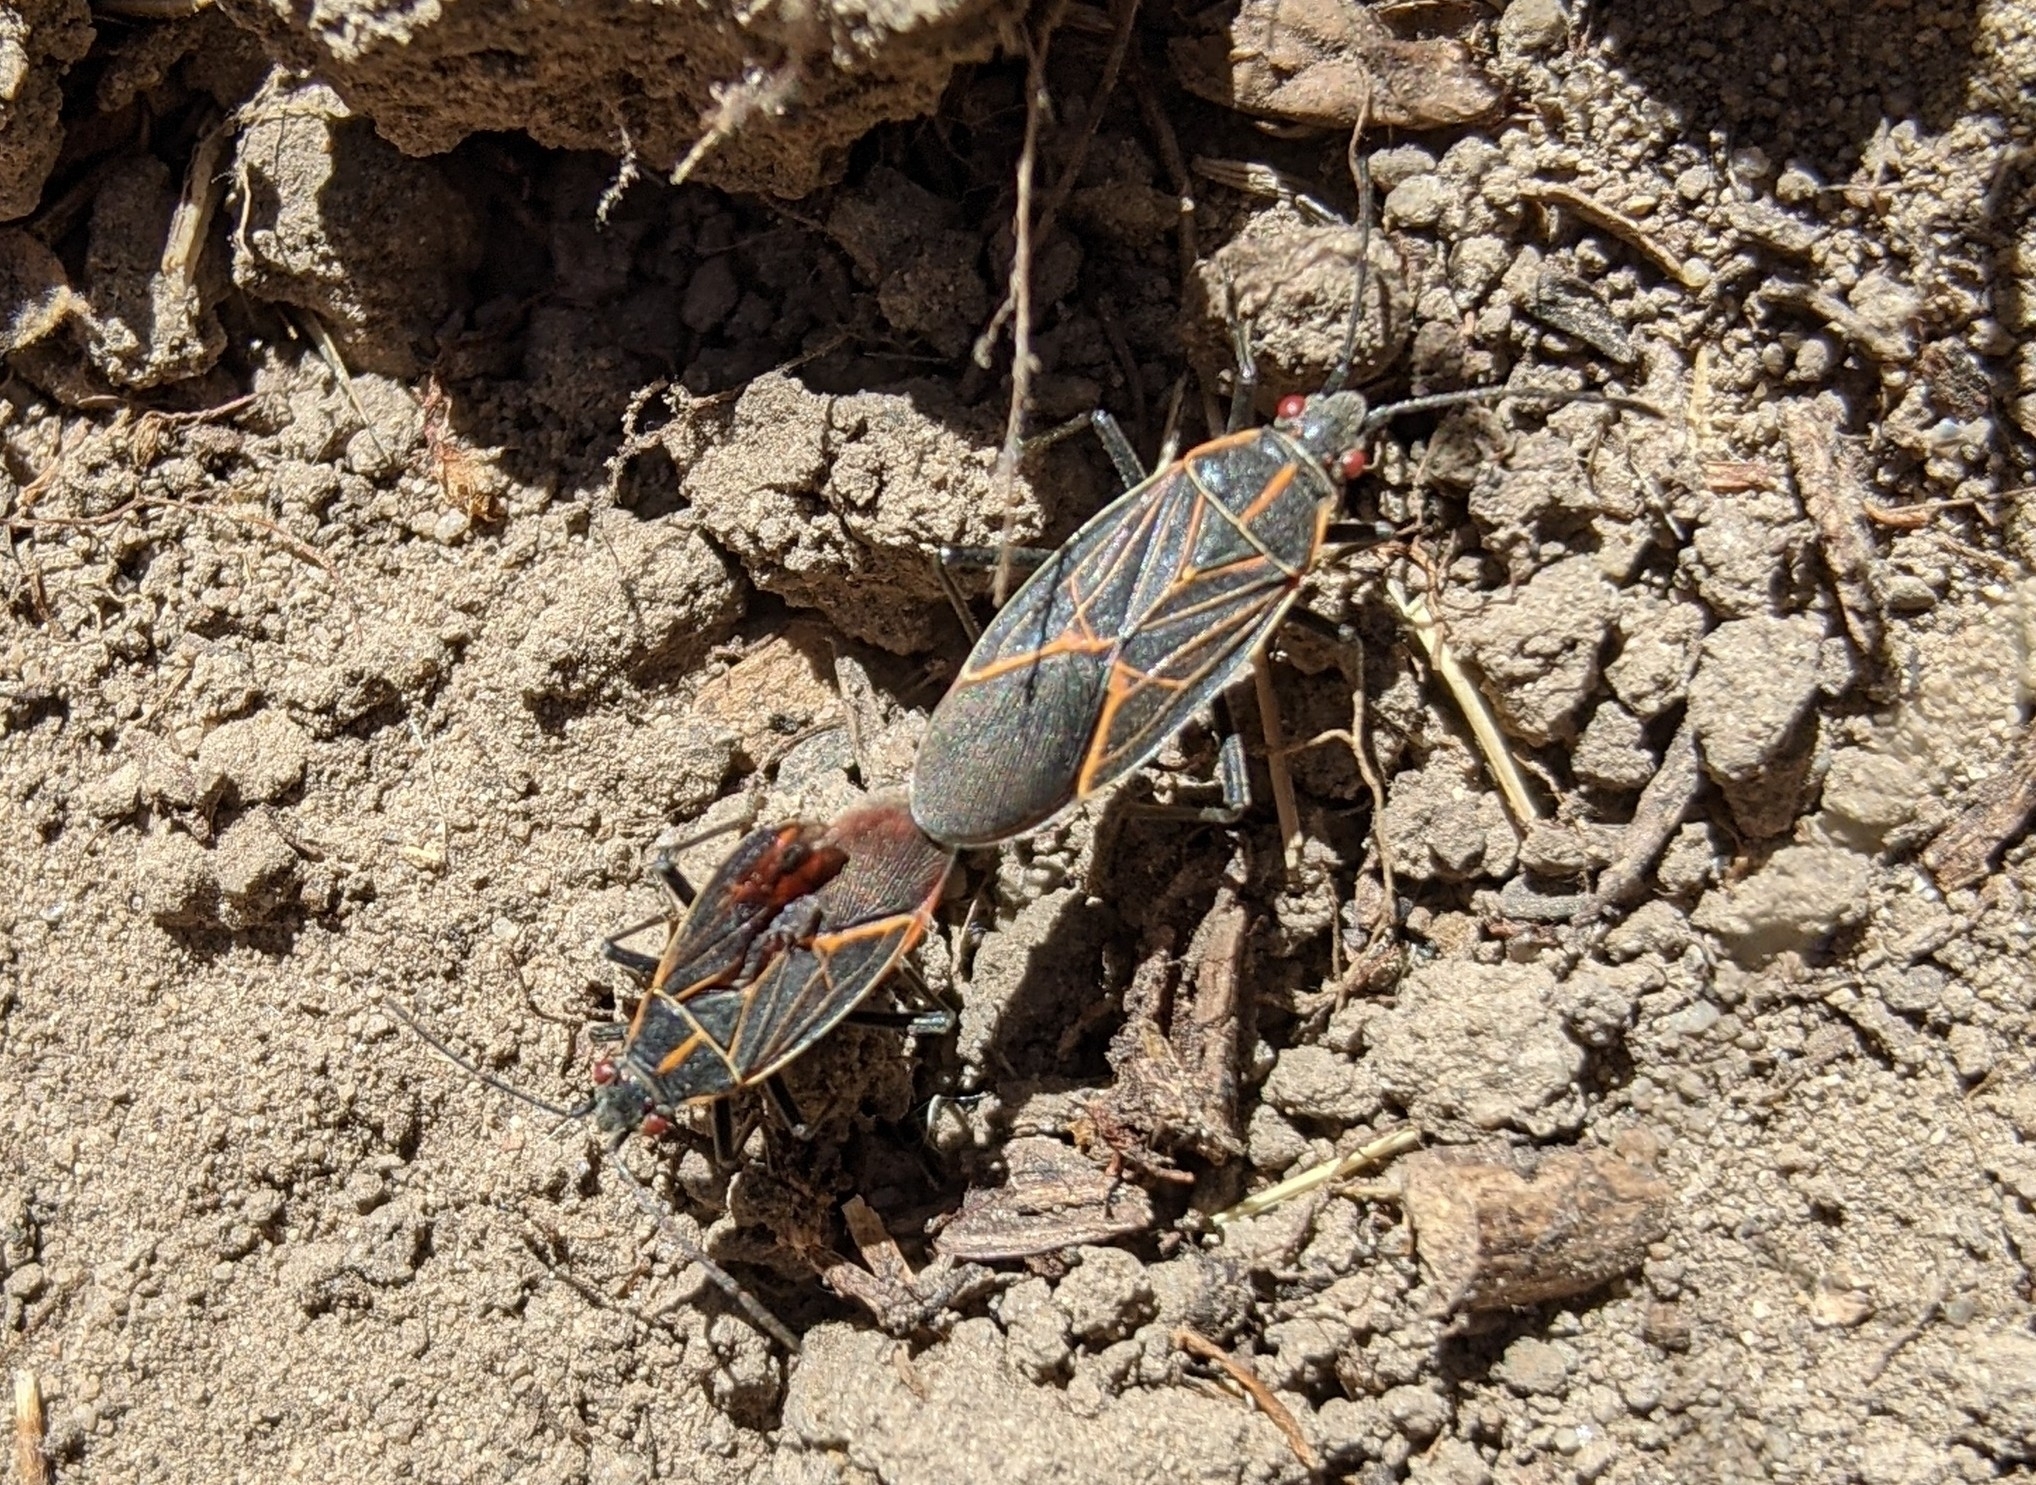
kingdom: Animalia
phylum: Arthropoda
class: Insecta
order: Hemiptera
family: Rhopalidae
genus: Boisea
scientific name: Boisea rubrolineata
